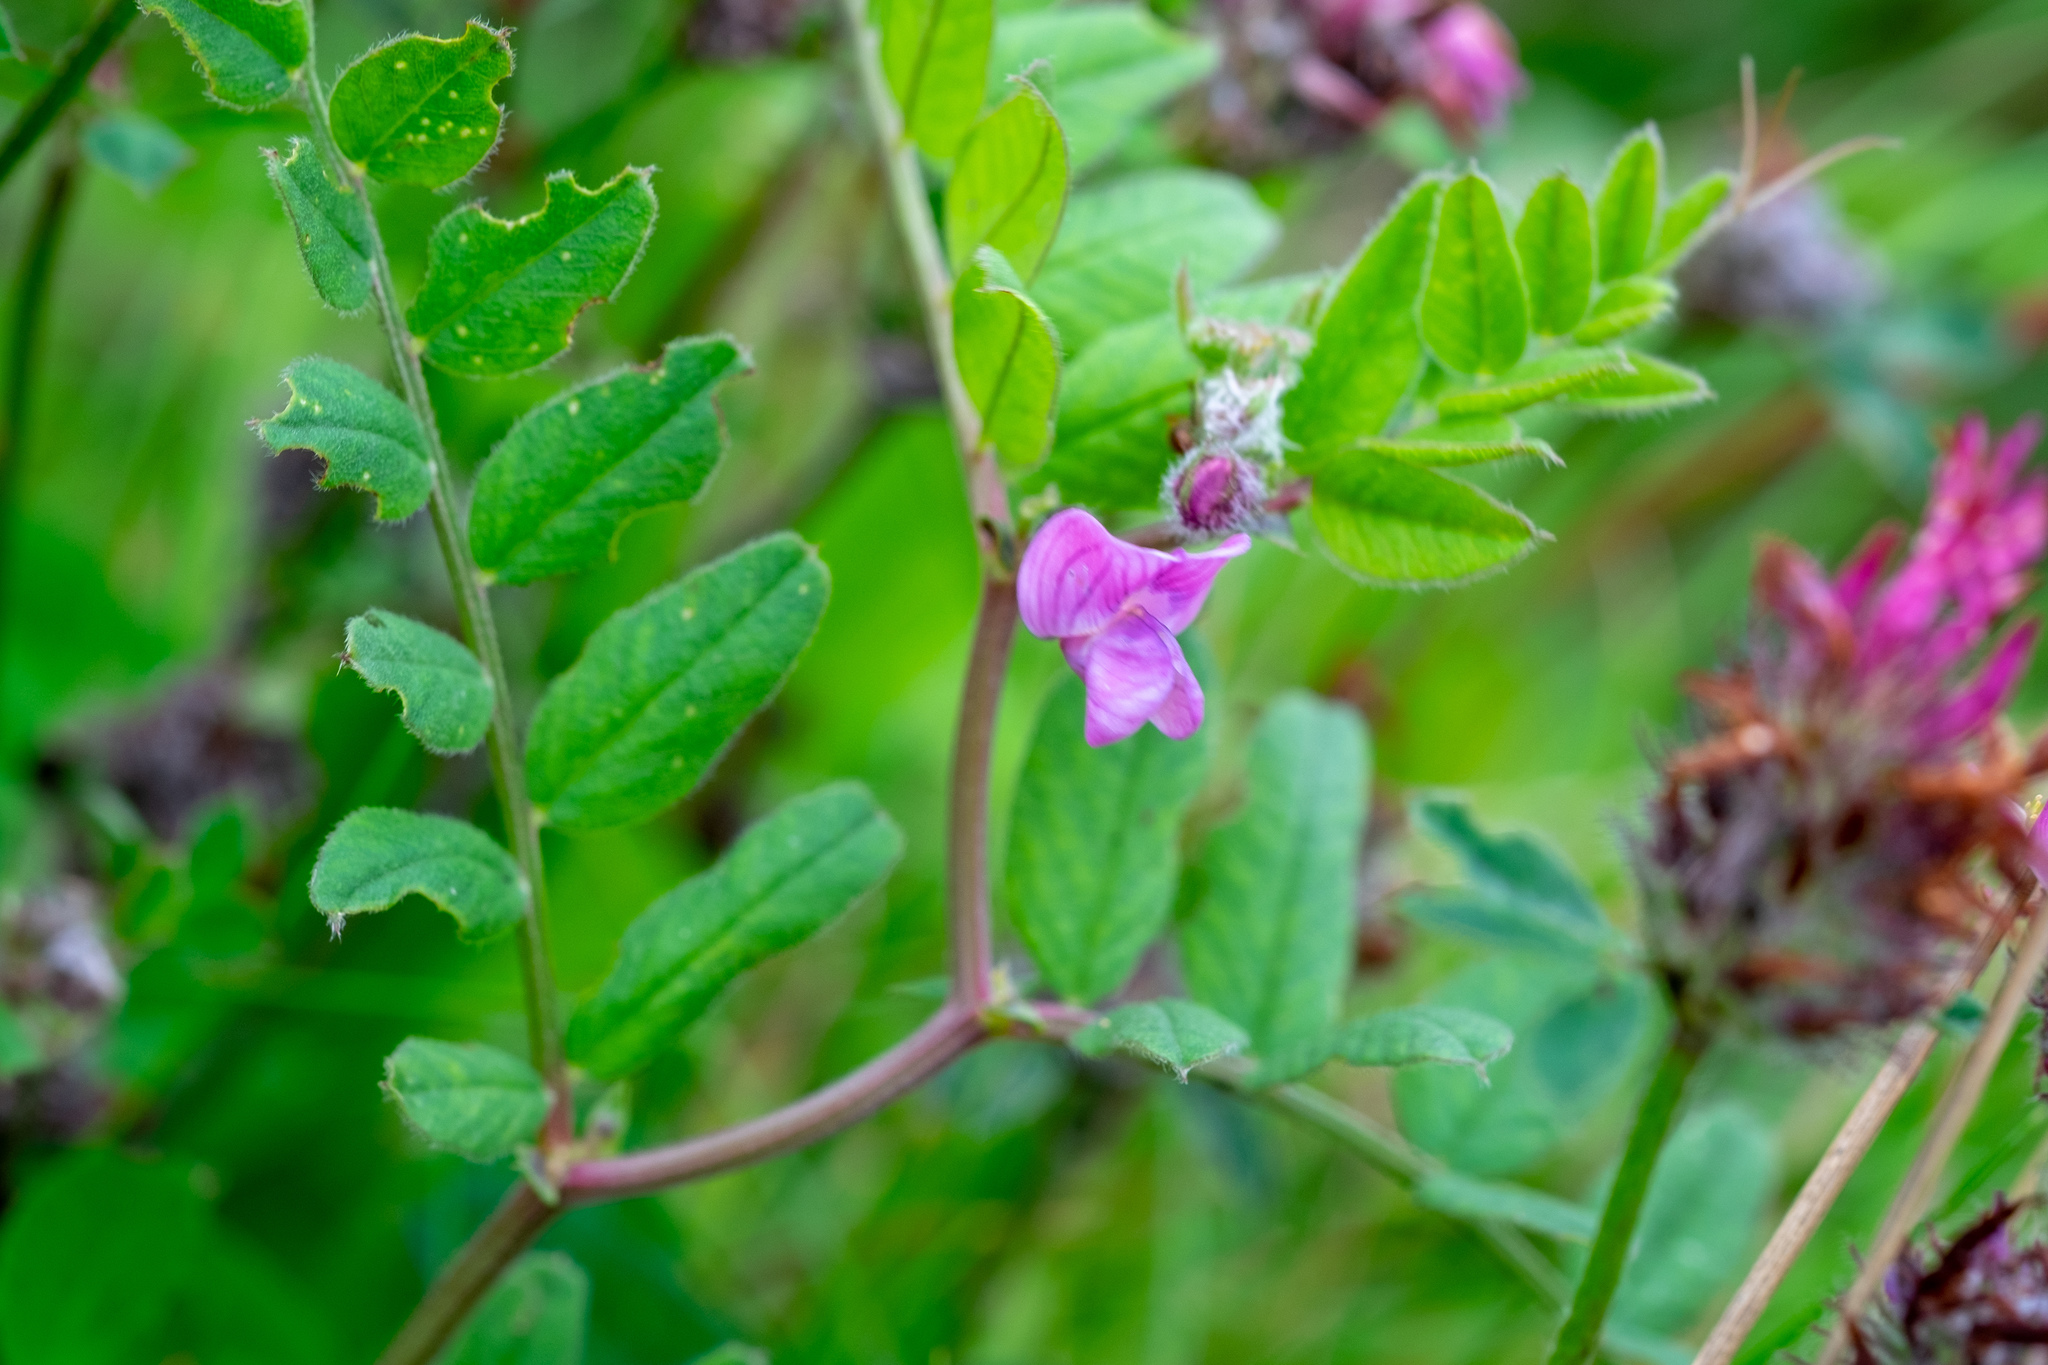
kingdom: Plantae
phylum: Tracheophyta
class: Magnoliopsida
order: Fabales
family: Fabaceae
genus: Vicia
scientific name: Vicia sepium
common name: Bush vetch
